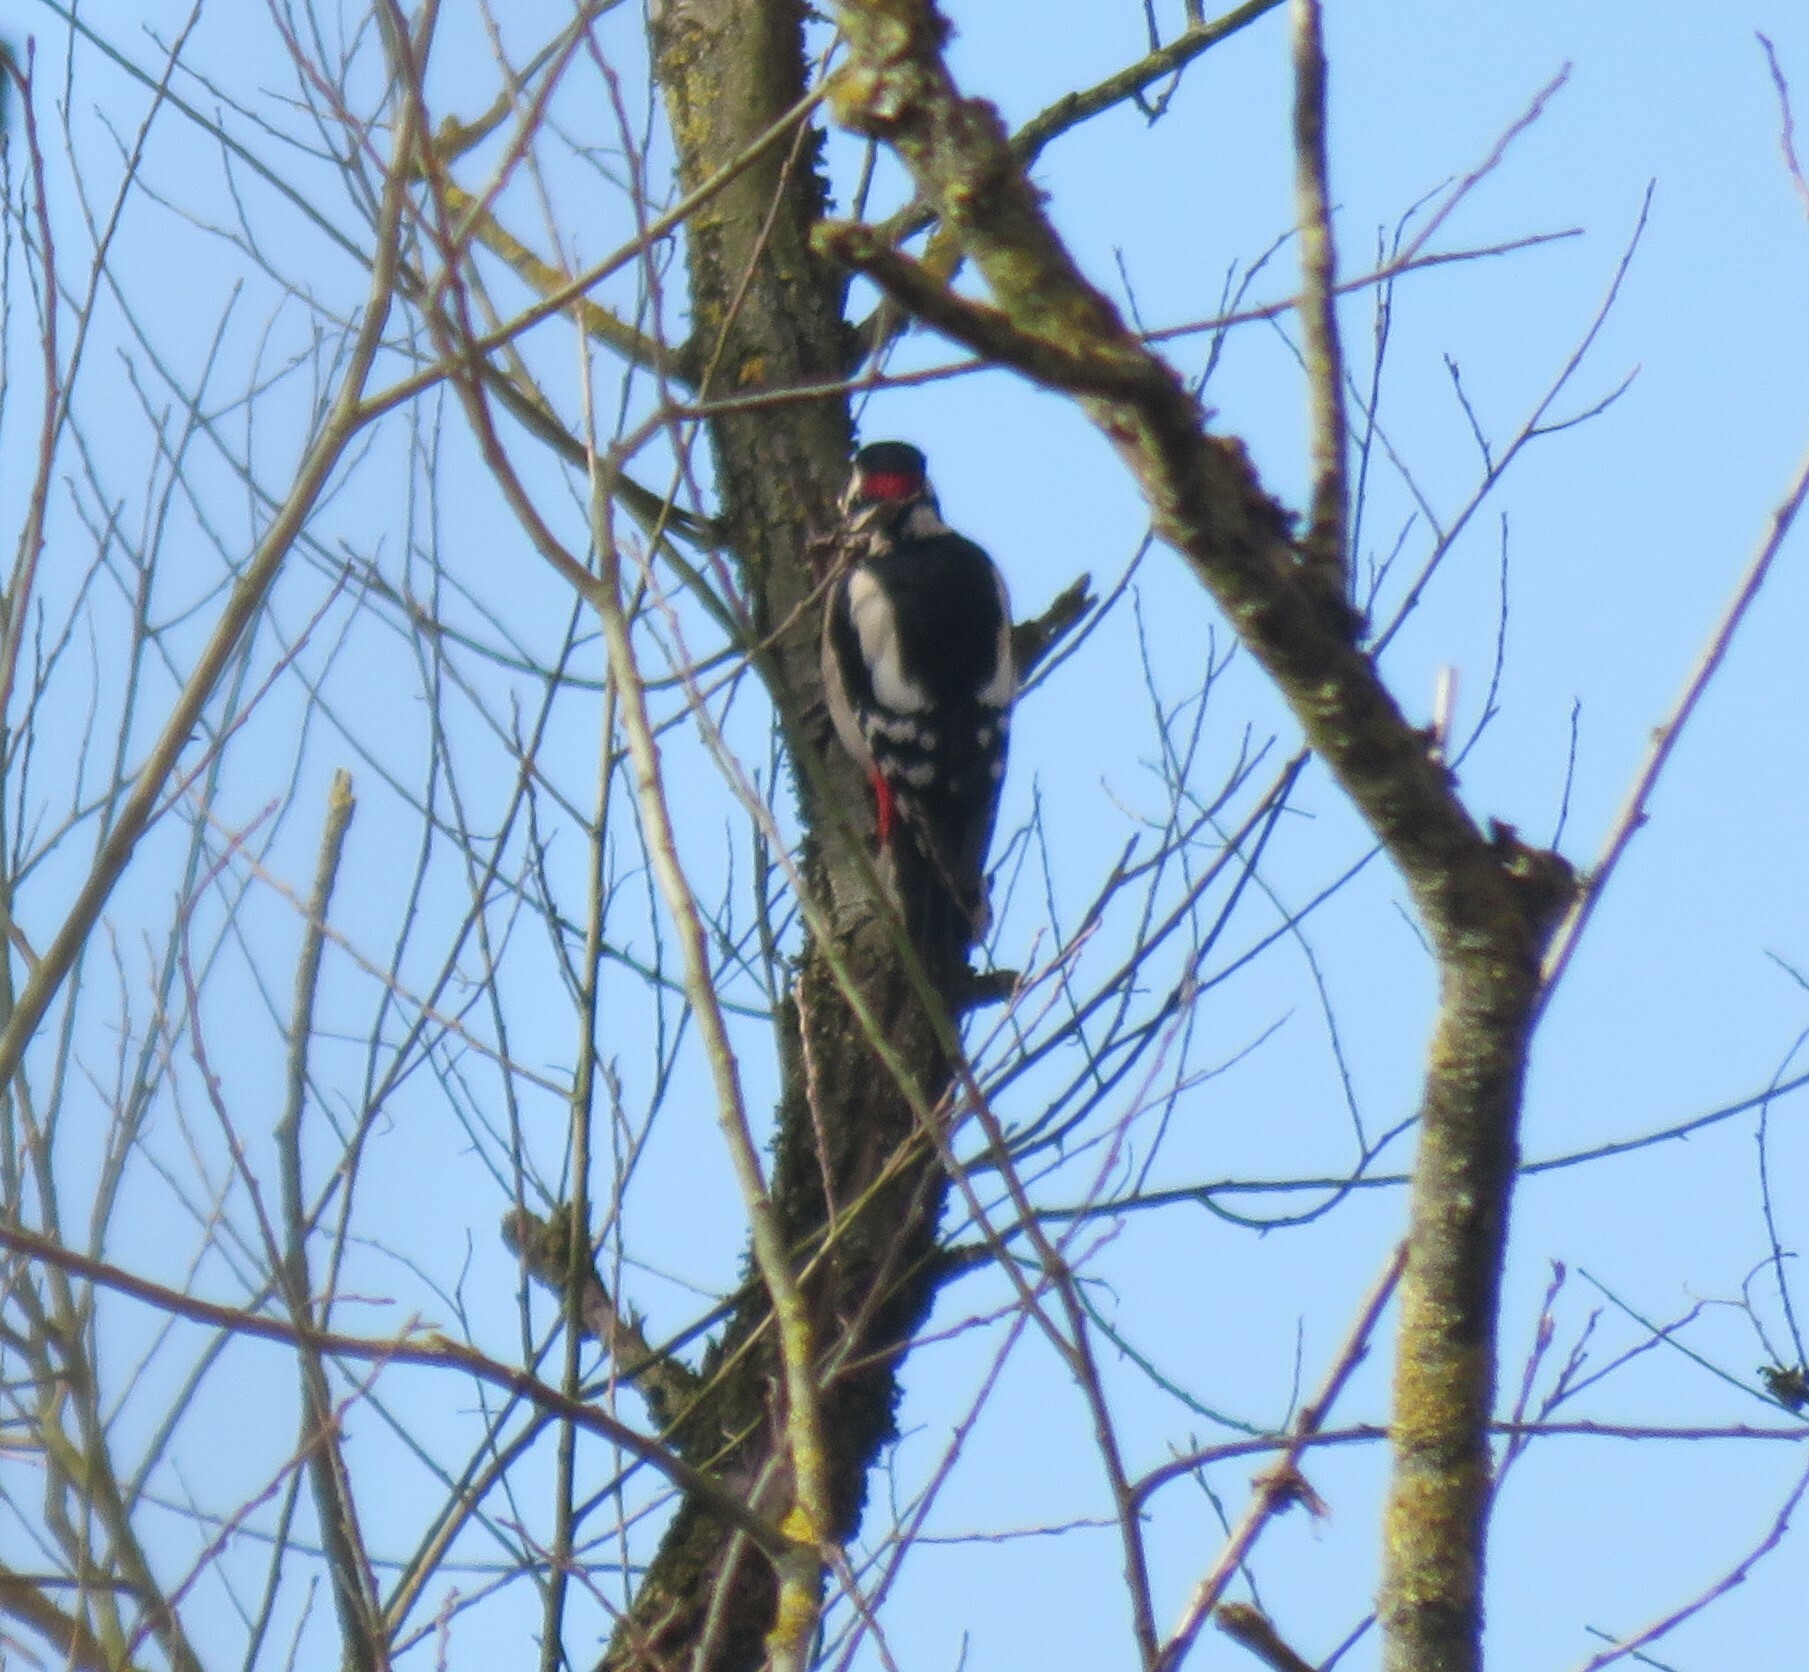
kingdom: Animalia
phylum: Chordata
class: Aves
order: Piciformes
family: Picidae
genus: Dendrocopos
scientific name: Dendrocopos major
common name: Great spotted woodpecker
